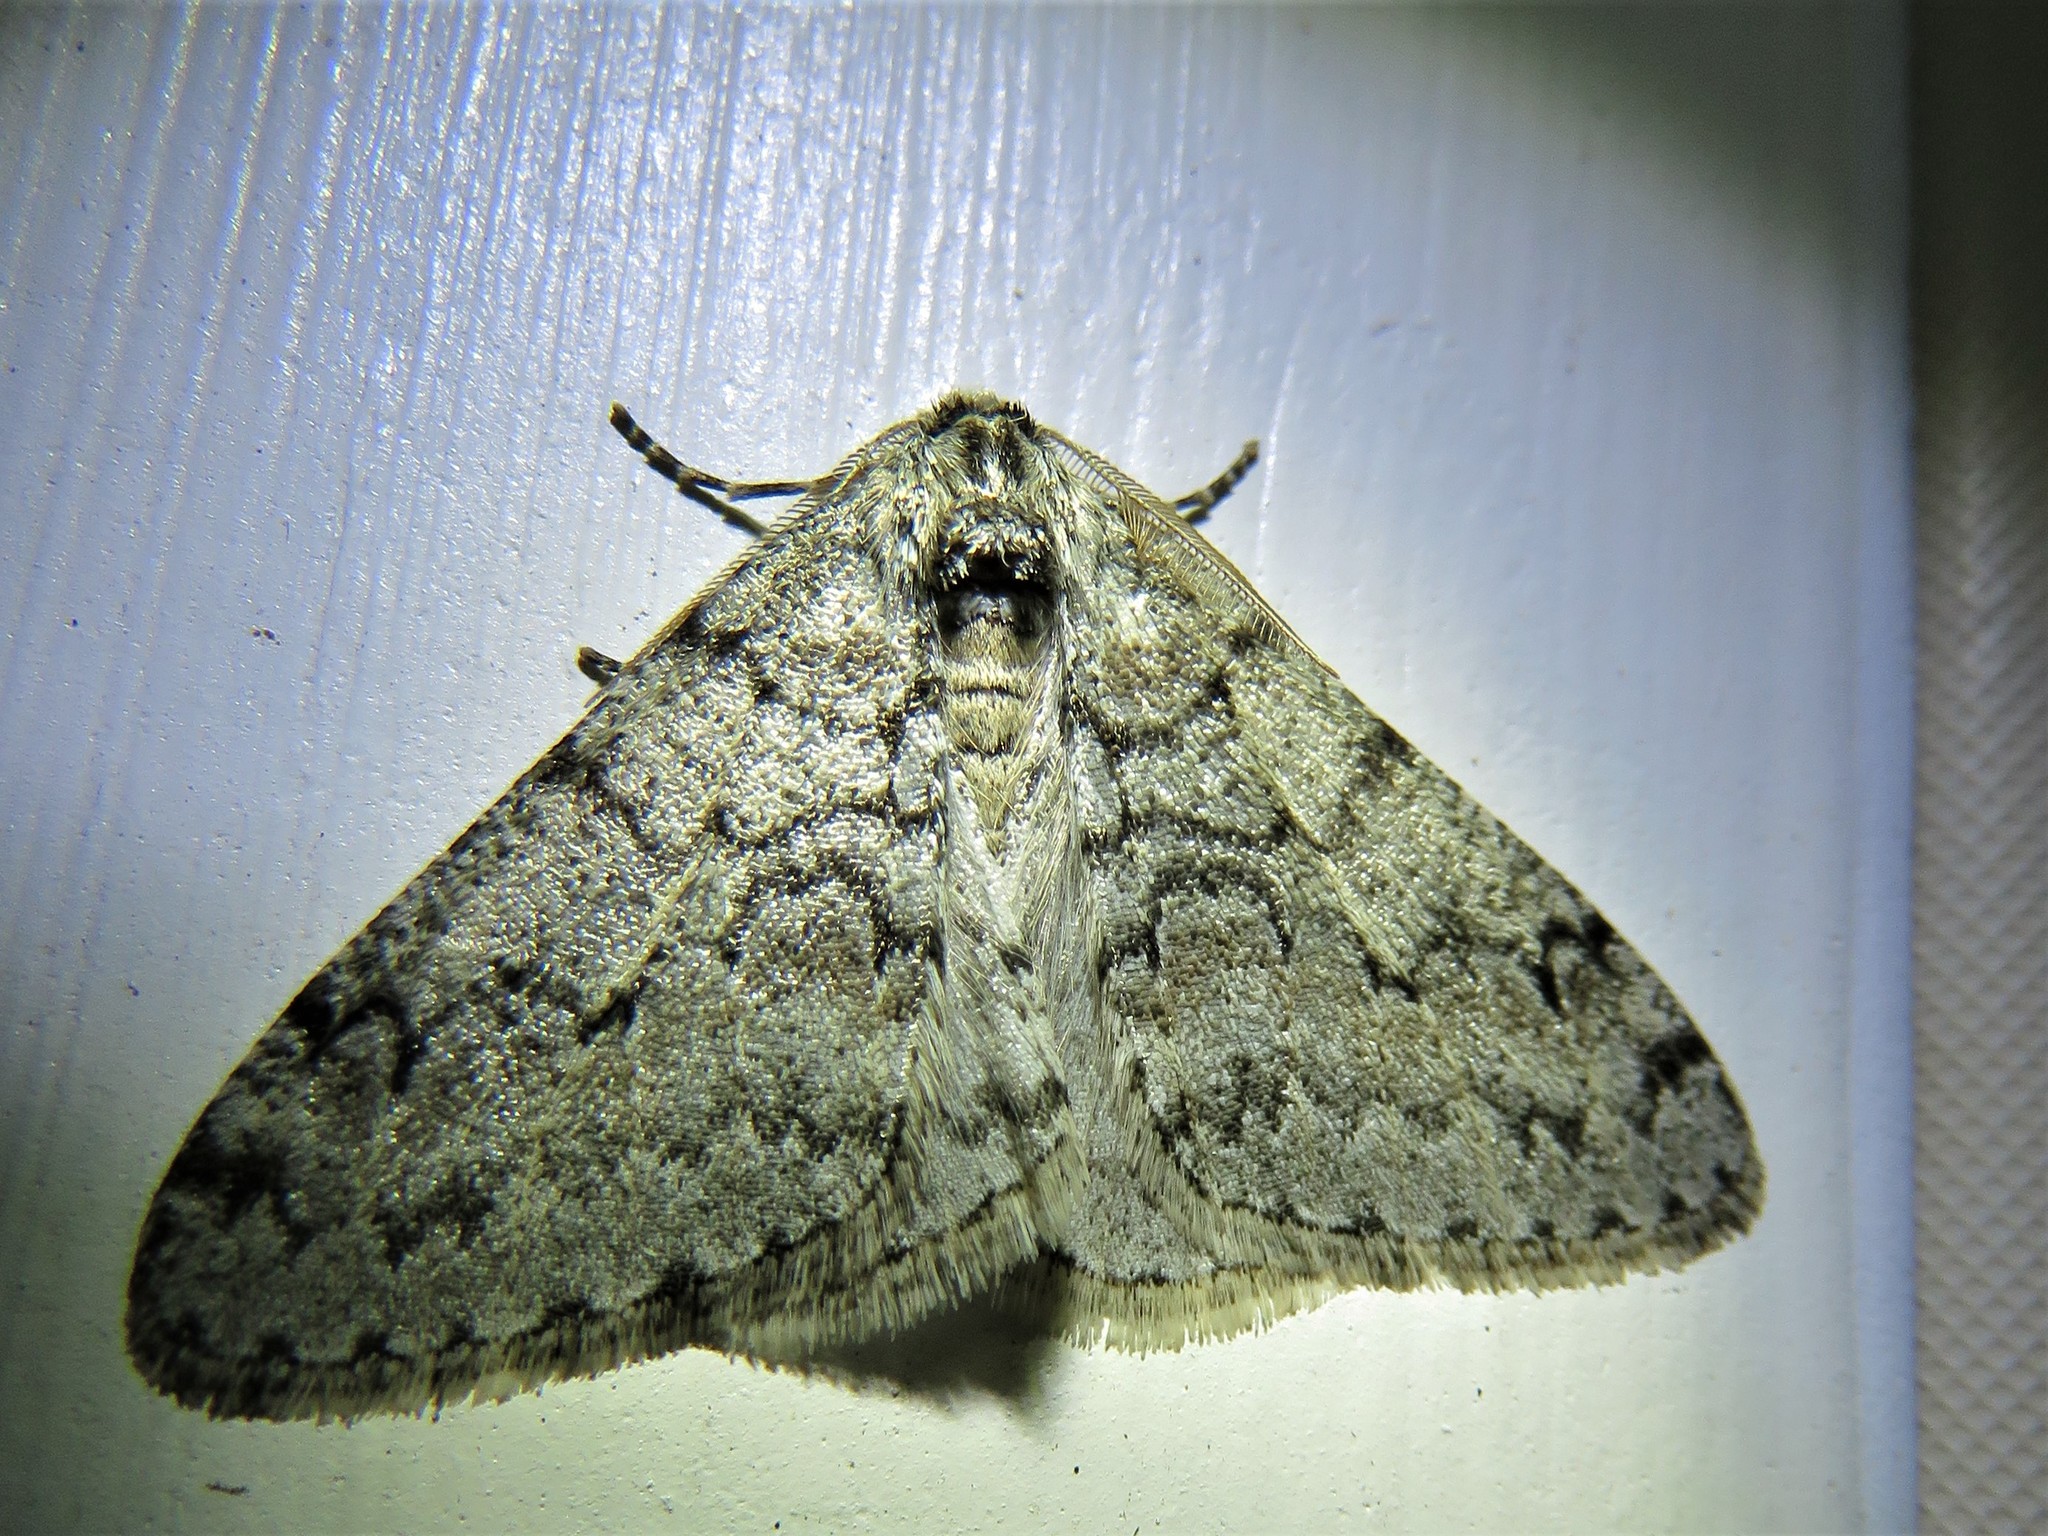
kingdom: Animalia
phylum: Arthropoda
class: Insecta
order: Lepidoptera
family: Geometridae
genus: Phigalia
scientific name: Phigalia denticulata
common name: Toothed phigalia
